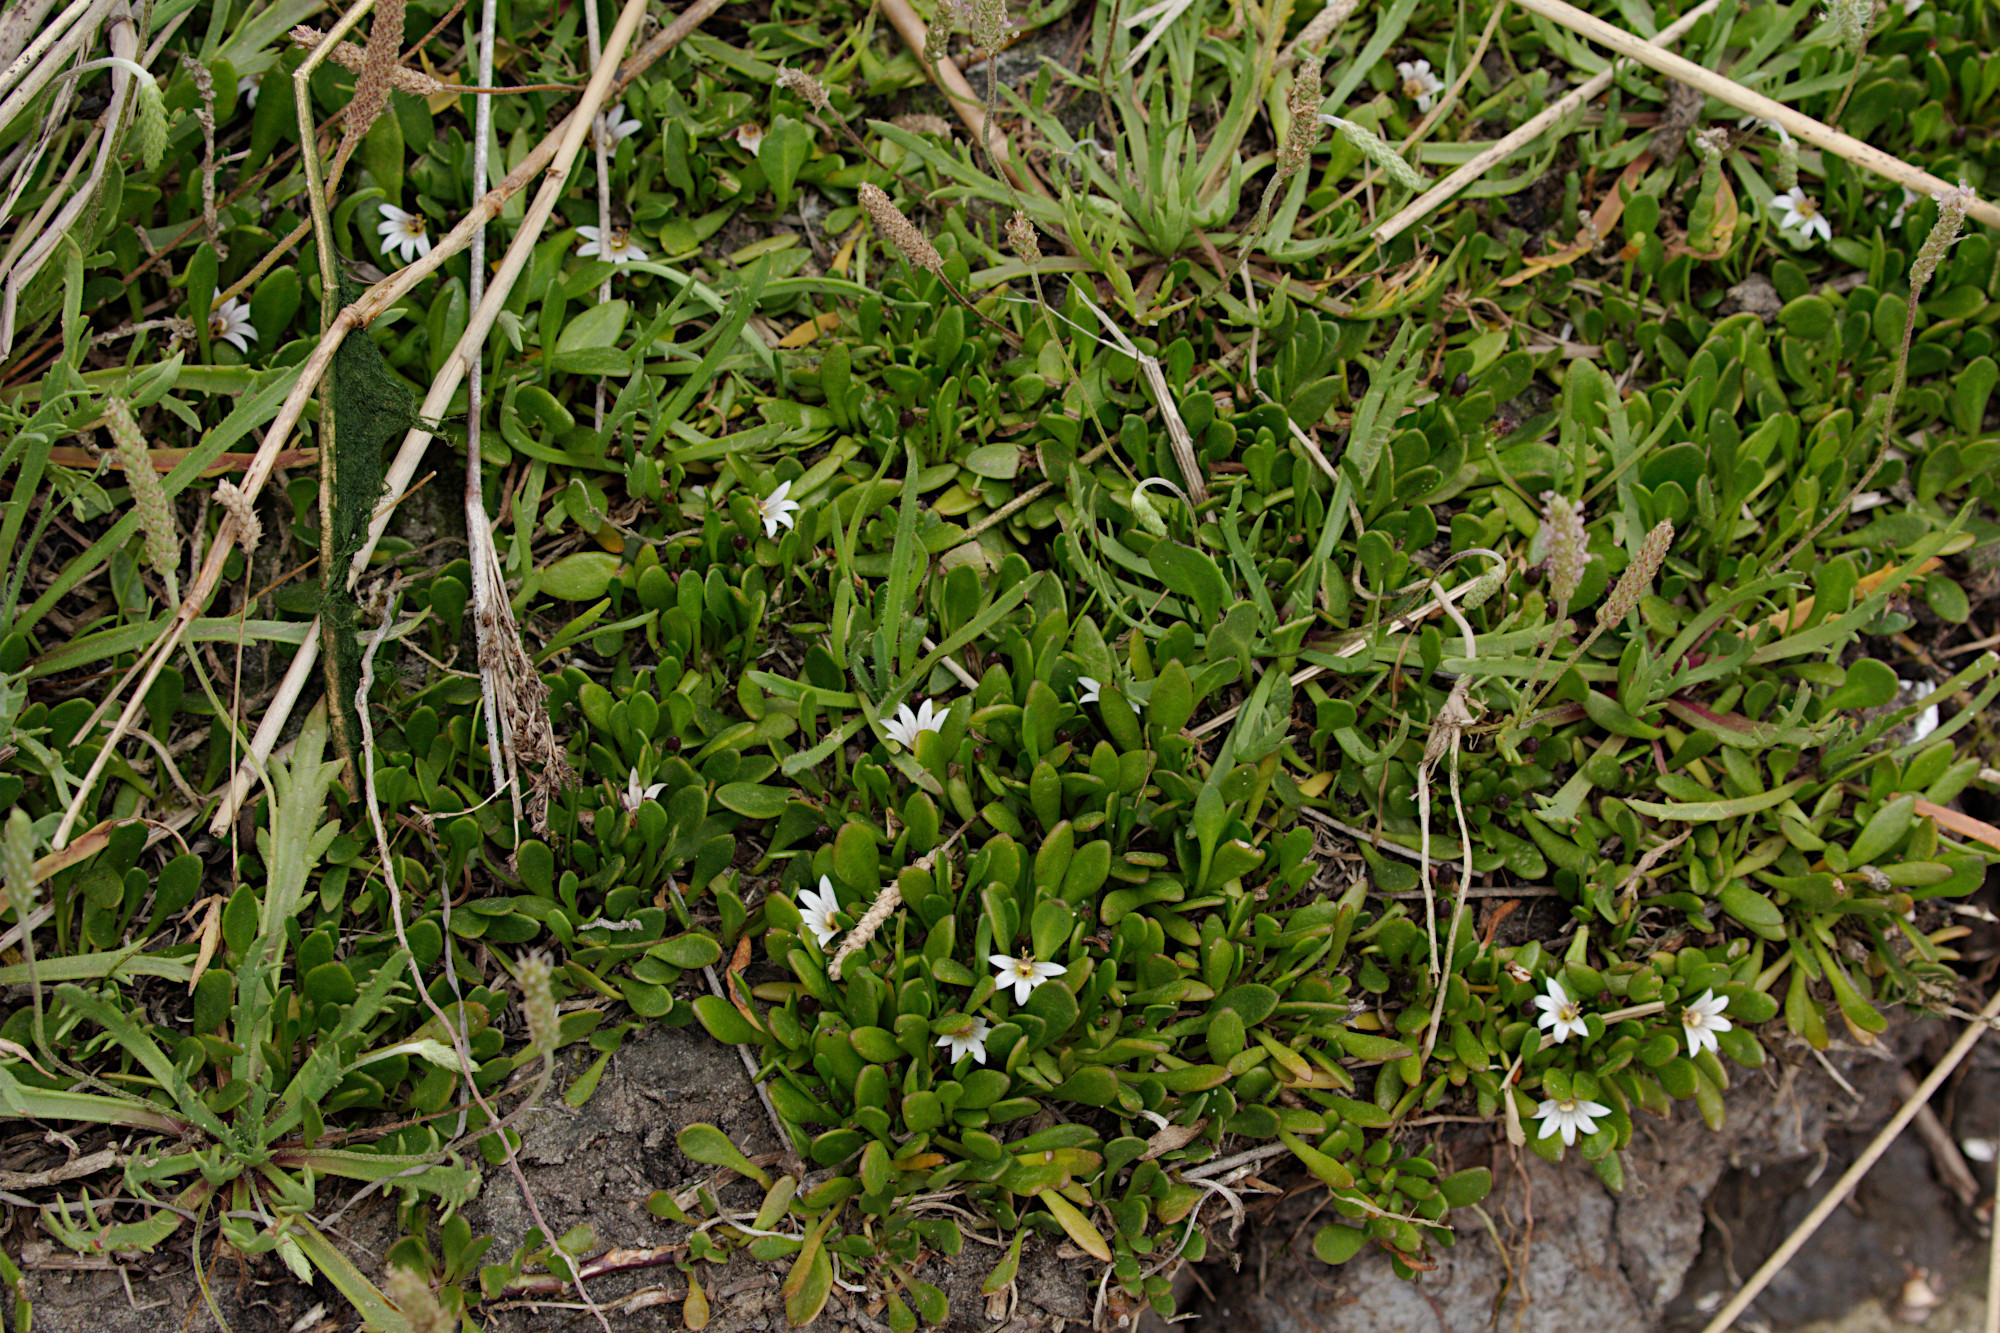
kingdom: Plantae
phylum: Tracheophyta
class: Magnoliopsida
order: Asterales
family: Goodeniaceae
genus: Goodenia
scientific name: Goodenia radicans
